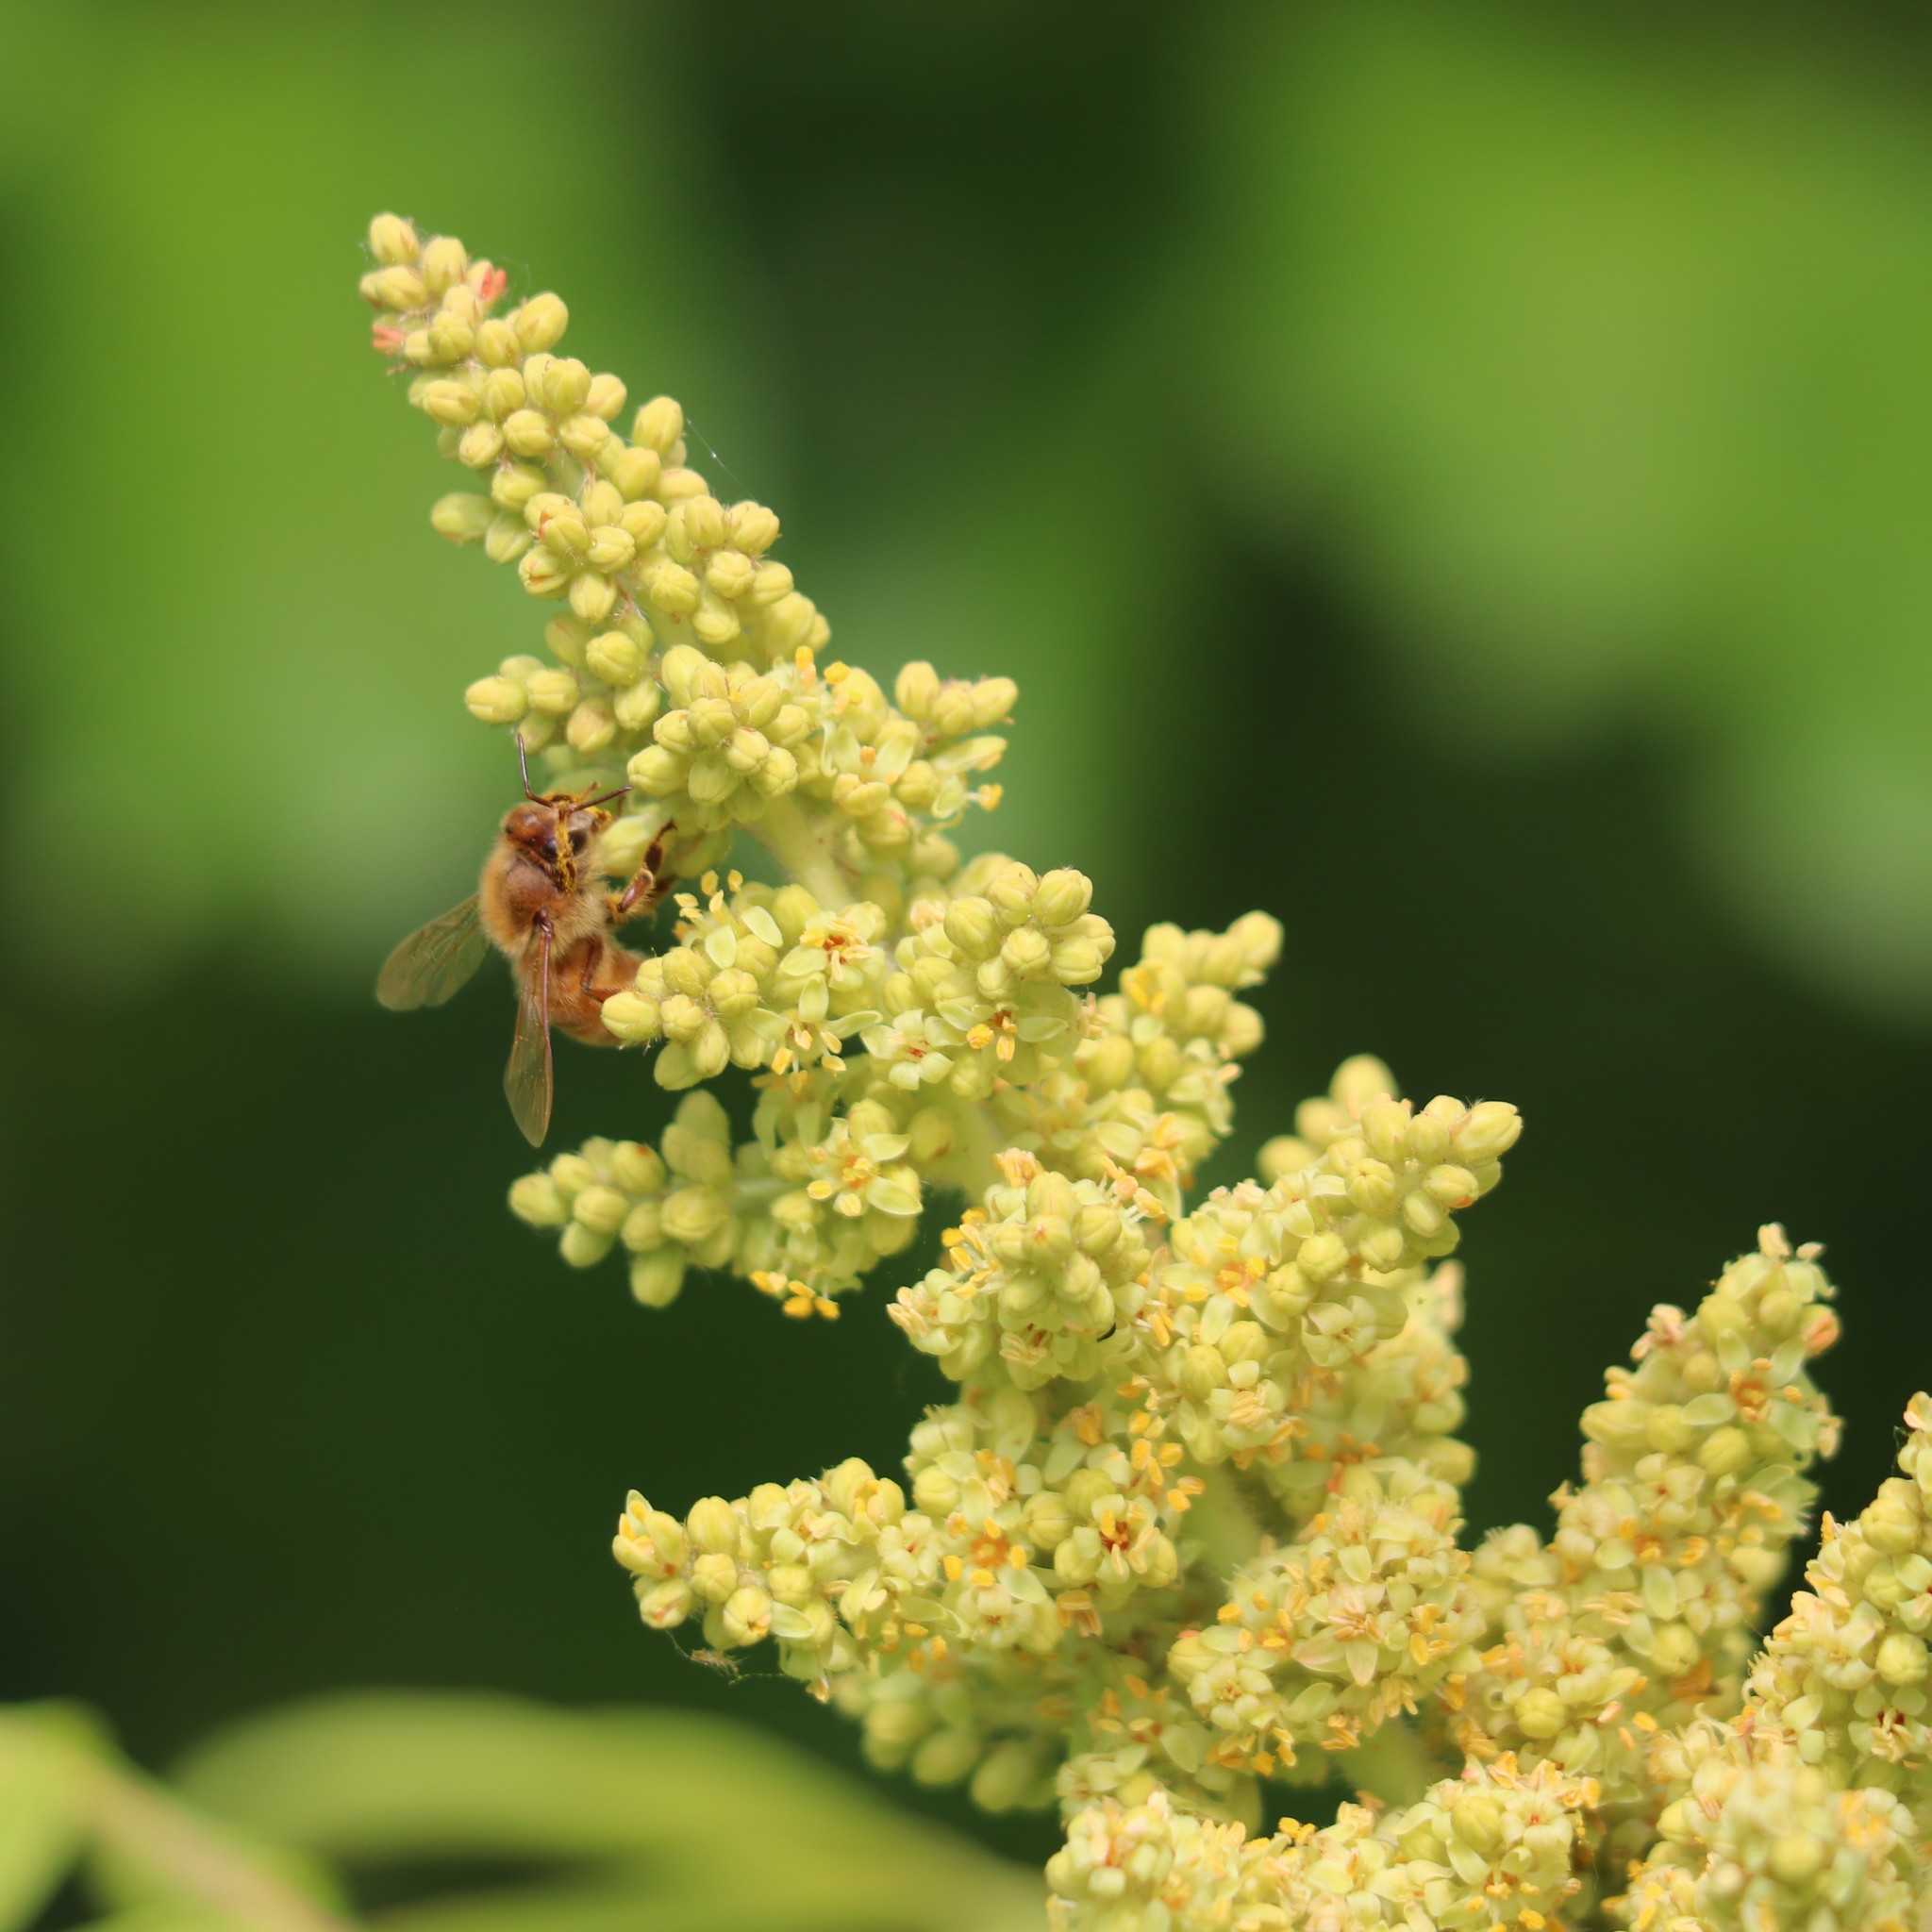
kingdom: Animalia
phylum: Arthropoda
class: Insecta
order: Hymenoptera
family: Apidae
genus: Apis
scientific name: Apis mellifera
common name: Honey bee
